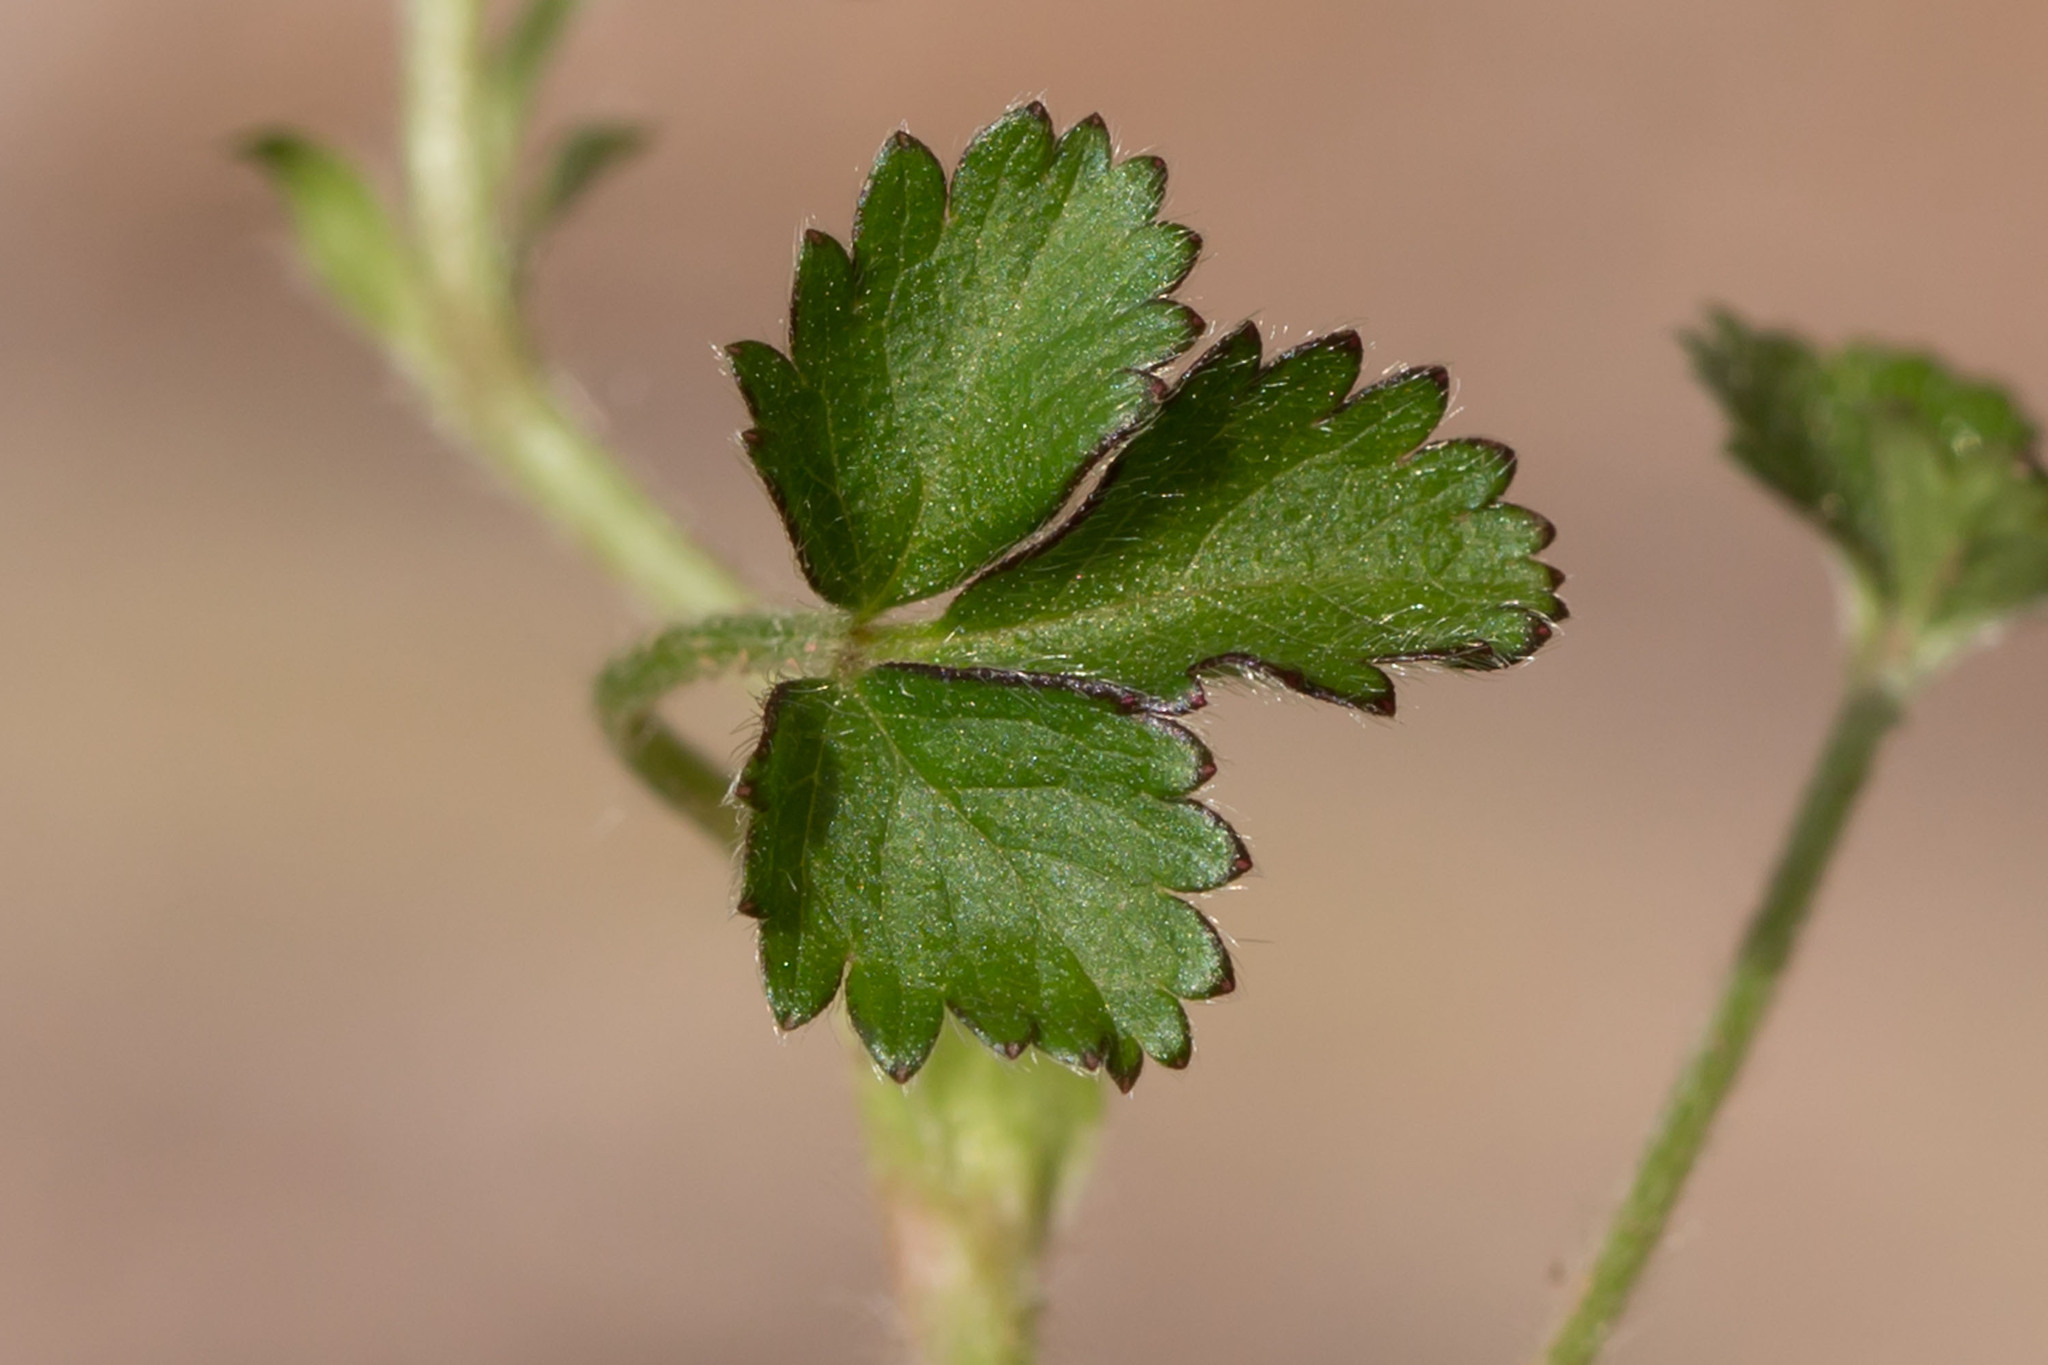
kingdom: Plantae
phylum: Tracheophyta
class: Magnoliopsida
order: Rosales
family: Rosaceae
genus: Potentilla
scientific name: Potentilla indica
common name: Yellow-flowered strawberry
